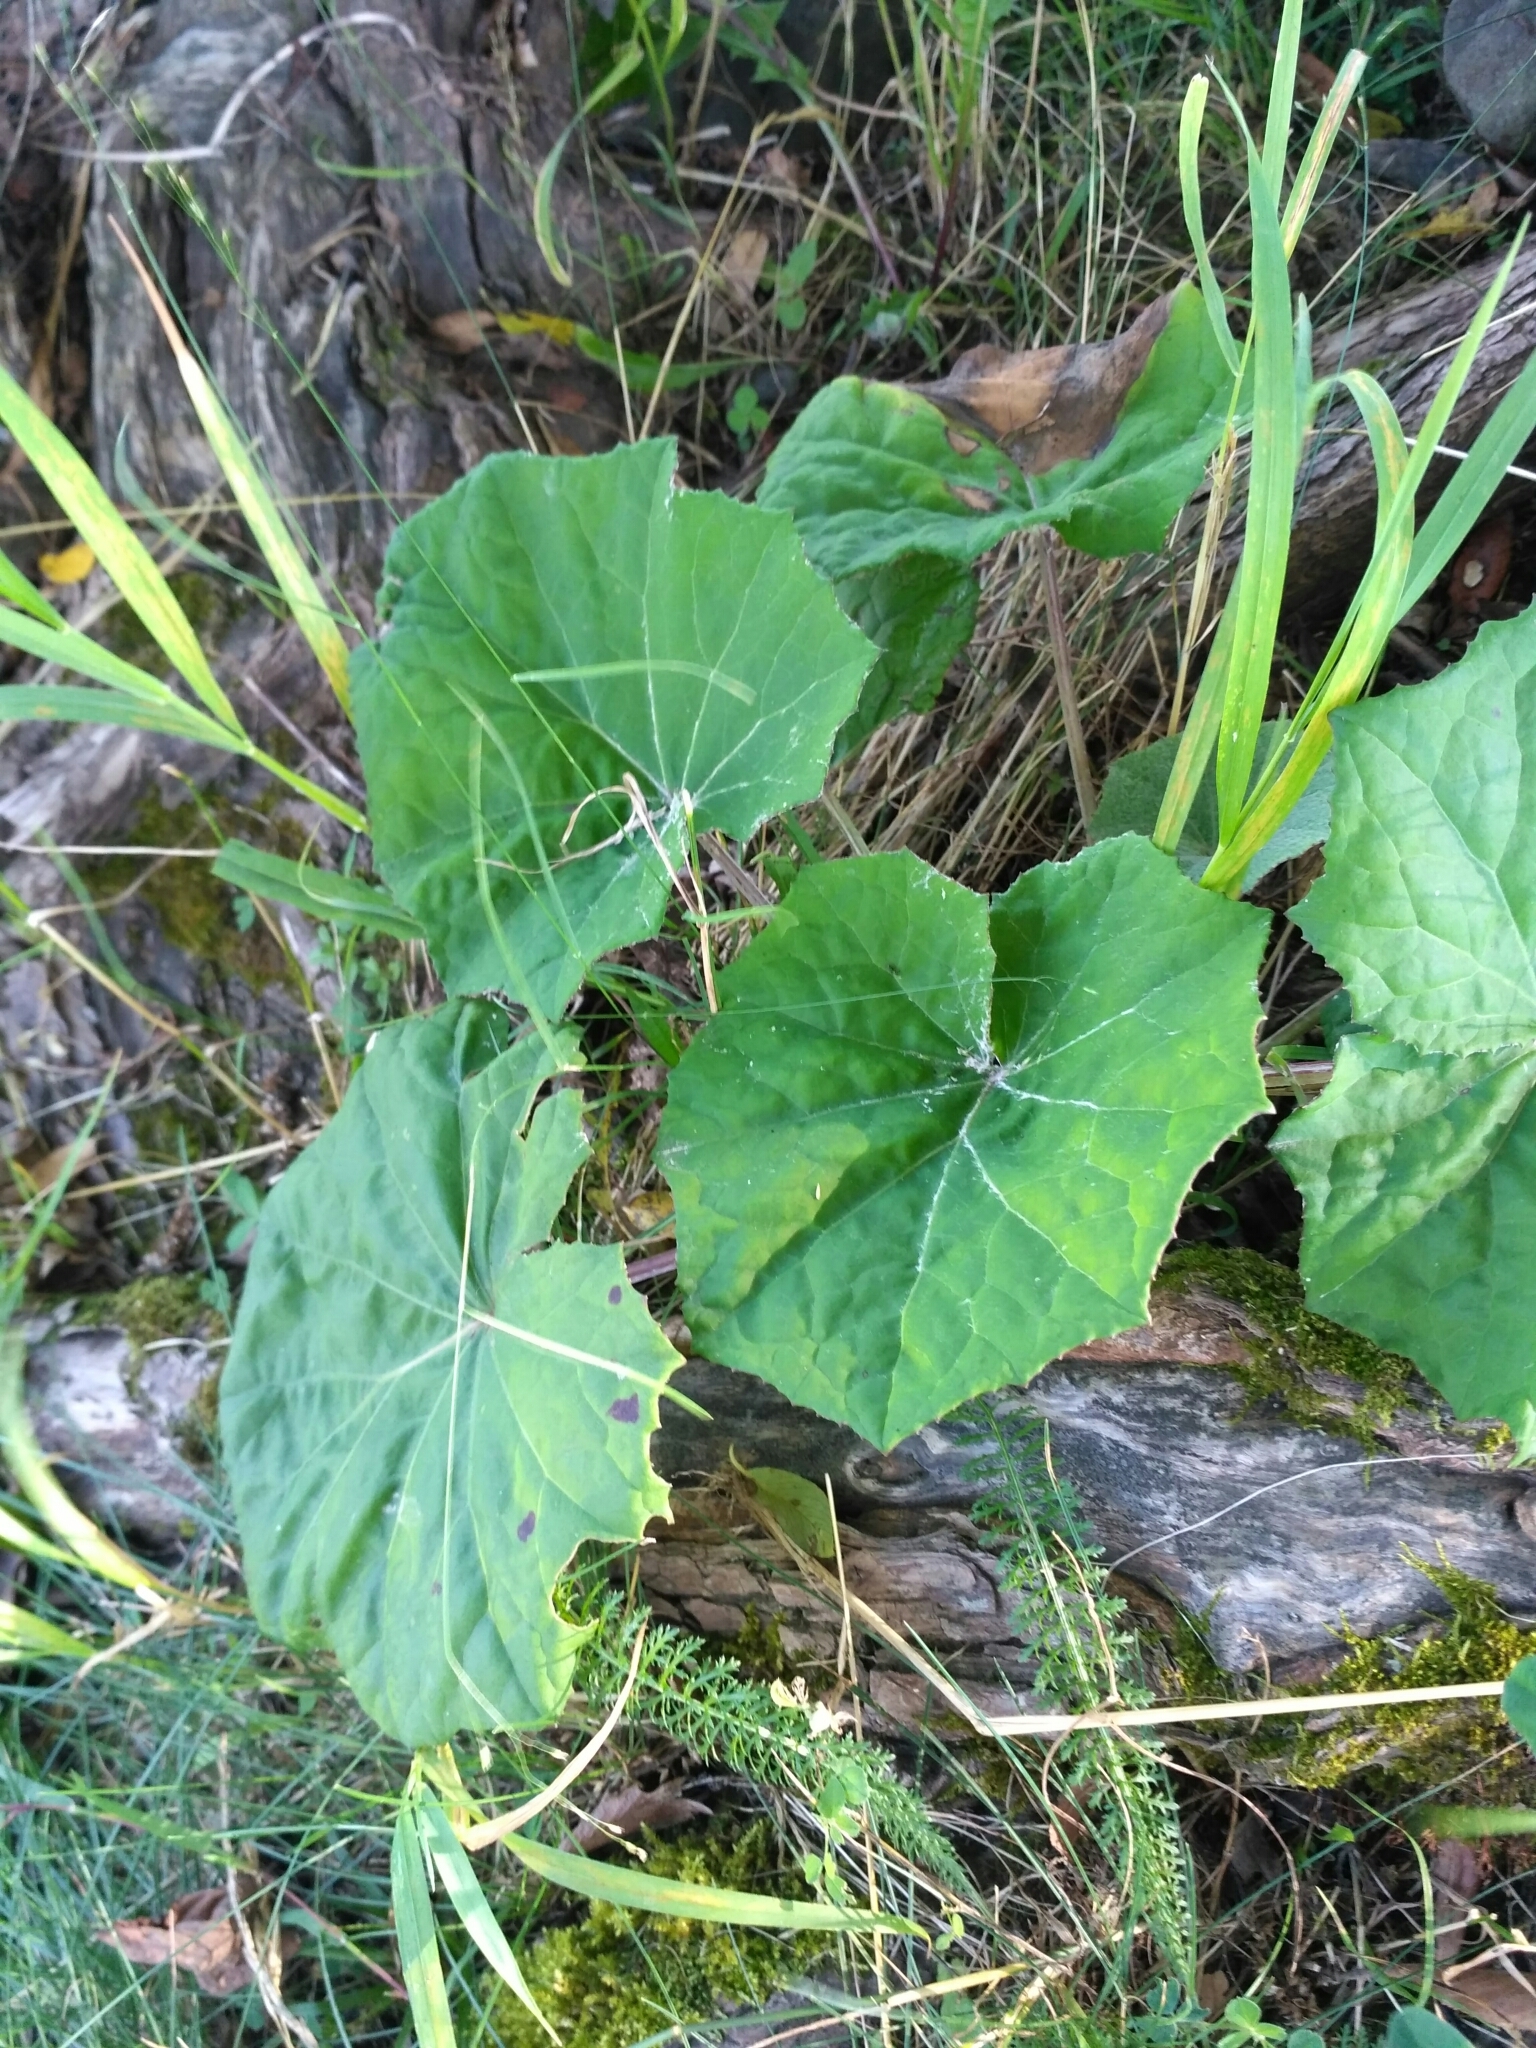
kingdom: Plantae
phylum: Tracheophyta
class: Magnoliopsida
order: Asterales
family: Asteraceae
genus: Tussilago
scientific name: Tussilago farfara
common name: Coltsfoot
